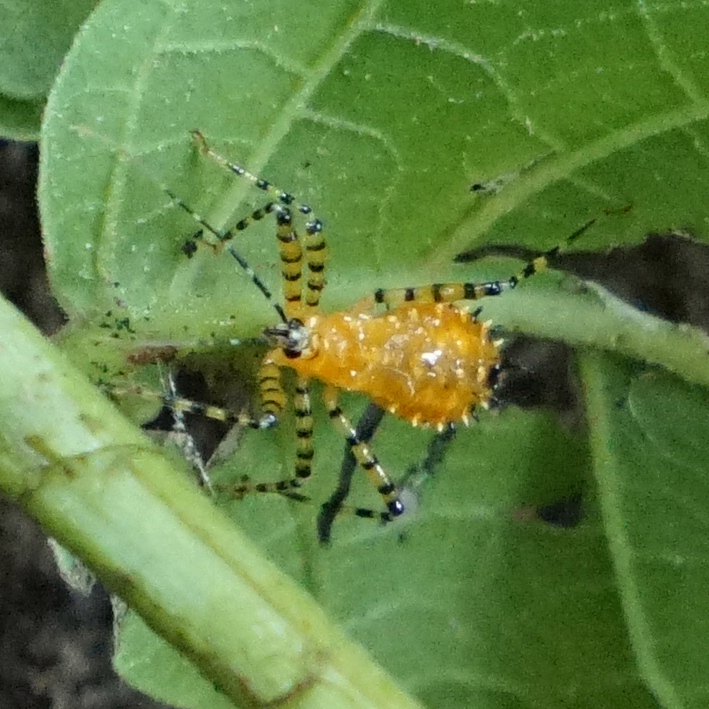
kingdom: Animalia
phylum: Arthropoda
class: Insecta
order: Hemiptera
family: Reduviidae
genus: Pselliopus
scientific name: Pselliopus barberi
